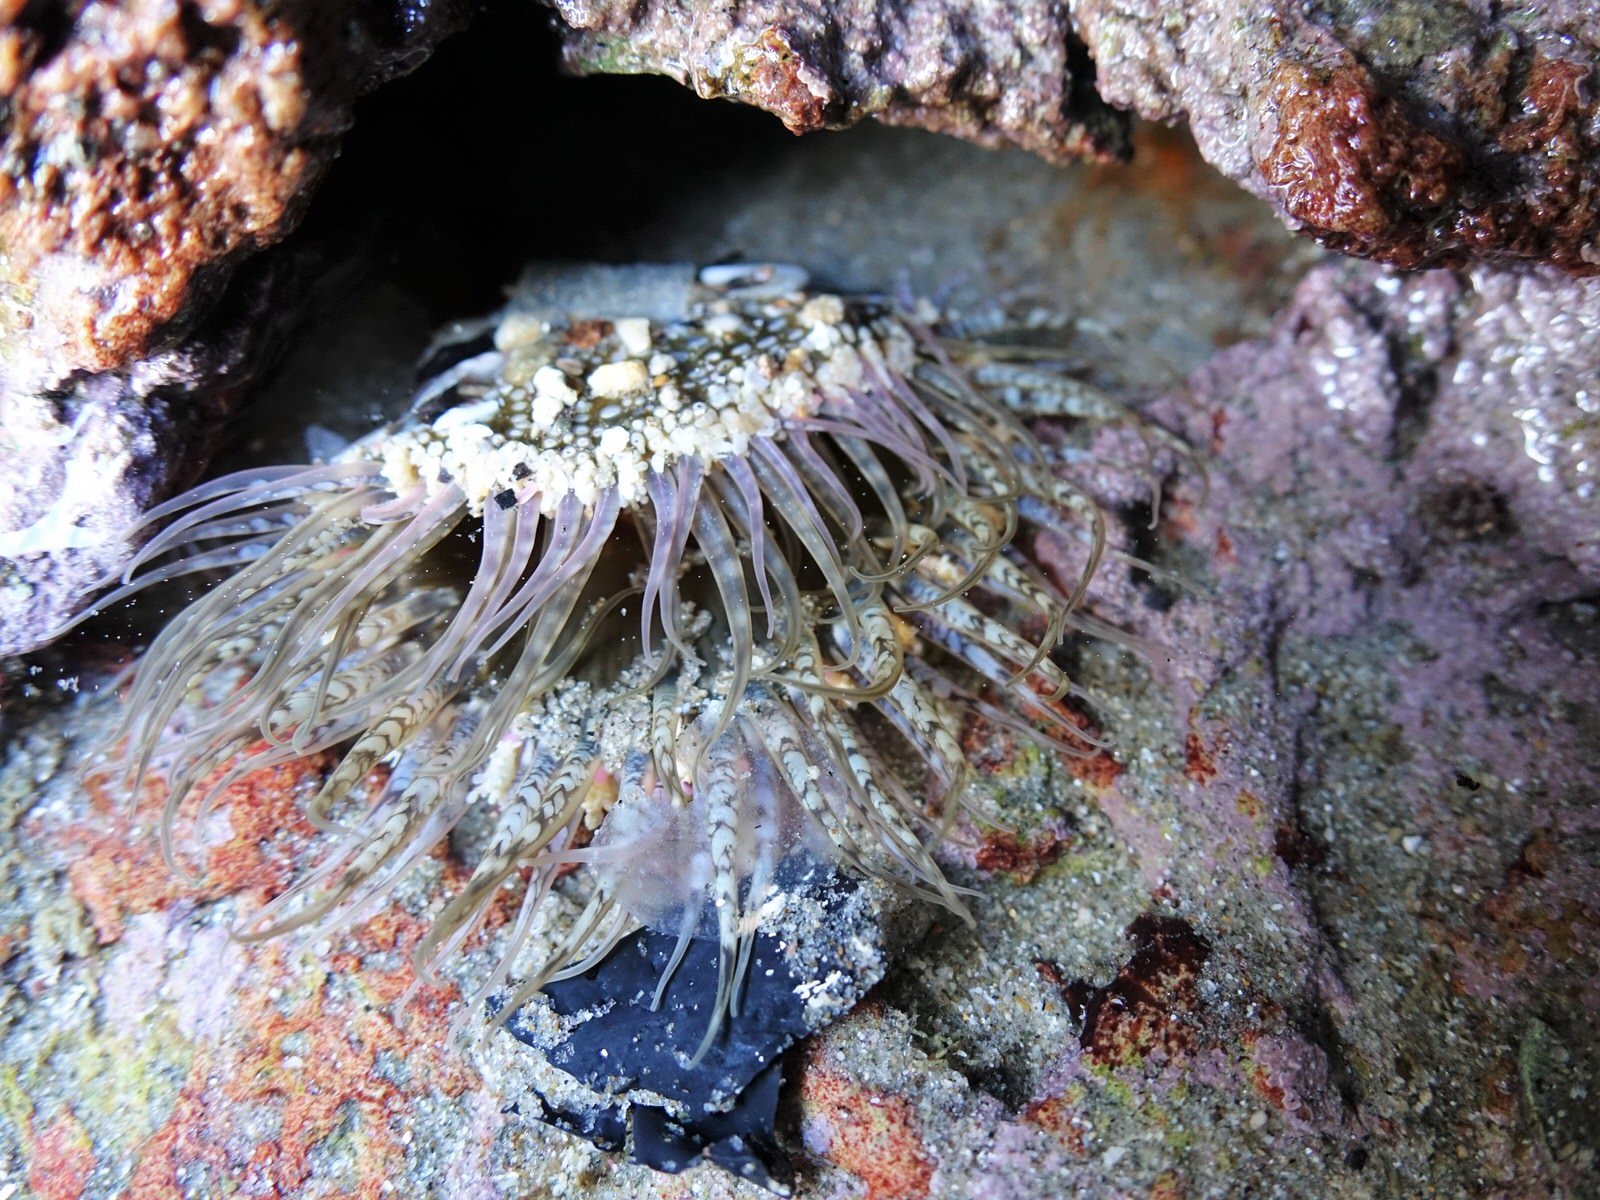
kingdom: Animalia
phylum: Cnidaria
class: Anthozoa
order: Actiniaria
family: Actiniidae
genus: Oulactis
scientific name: Oulactis muscosa
